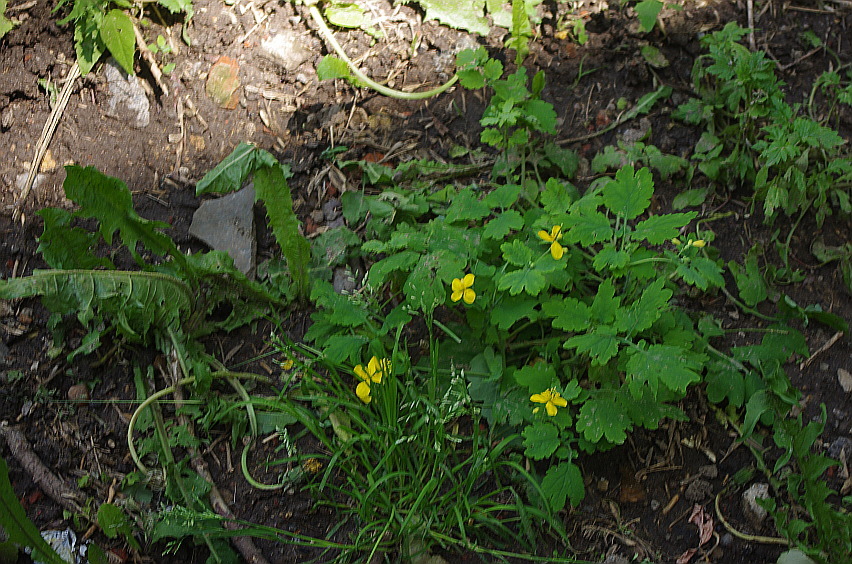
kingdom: Plantae
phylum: Tracheophyta
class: Magnoliopsida
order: Ranunculales
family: Papaveraceae
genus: Chelidonium
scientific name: Chelidonium majus
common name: Greater celandine
